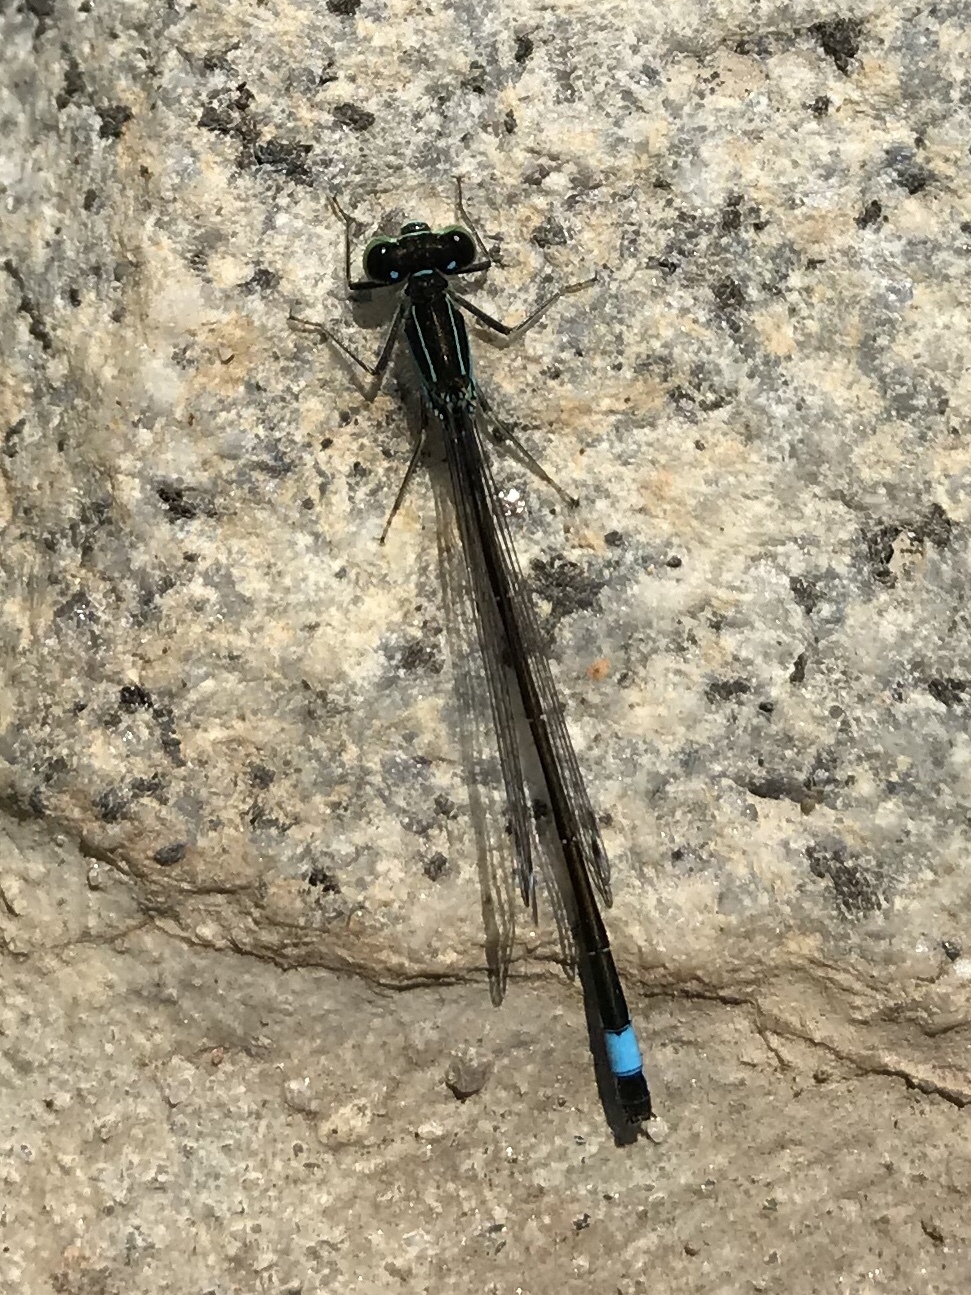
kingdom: Animalia
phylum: Arthropoda
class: Insecta
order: Odonata
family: Coenagrionidae
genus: Ischnura
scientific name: Ischnura elegans
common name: Blue-tailed damselfly
